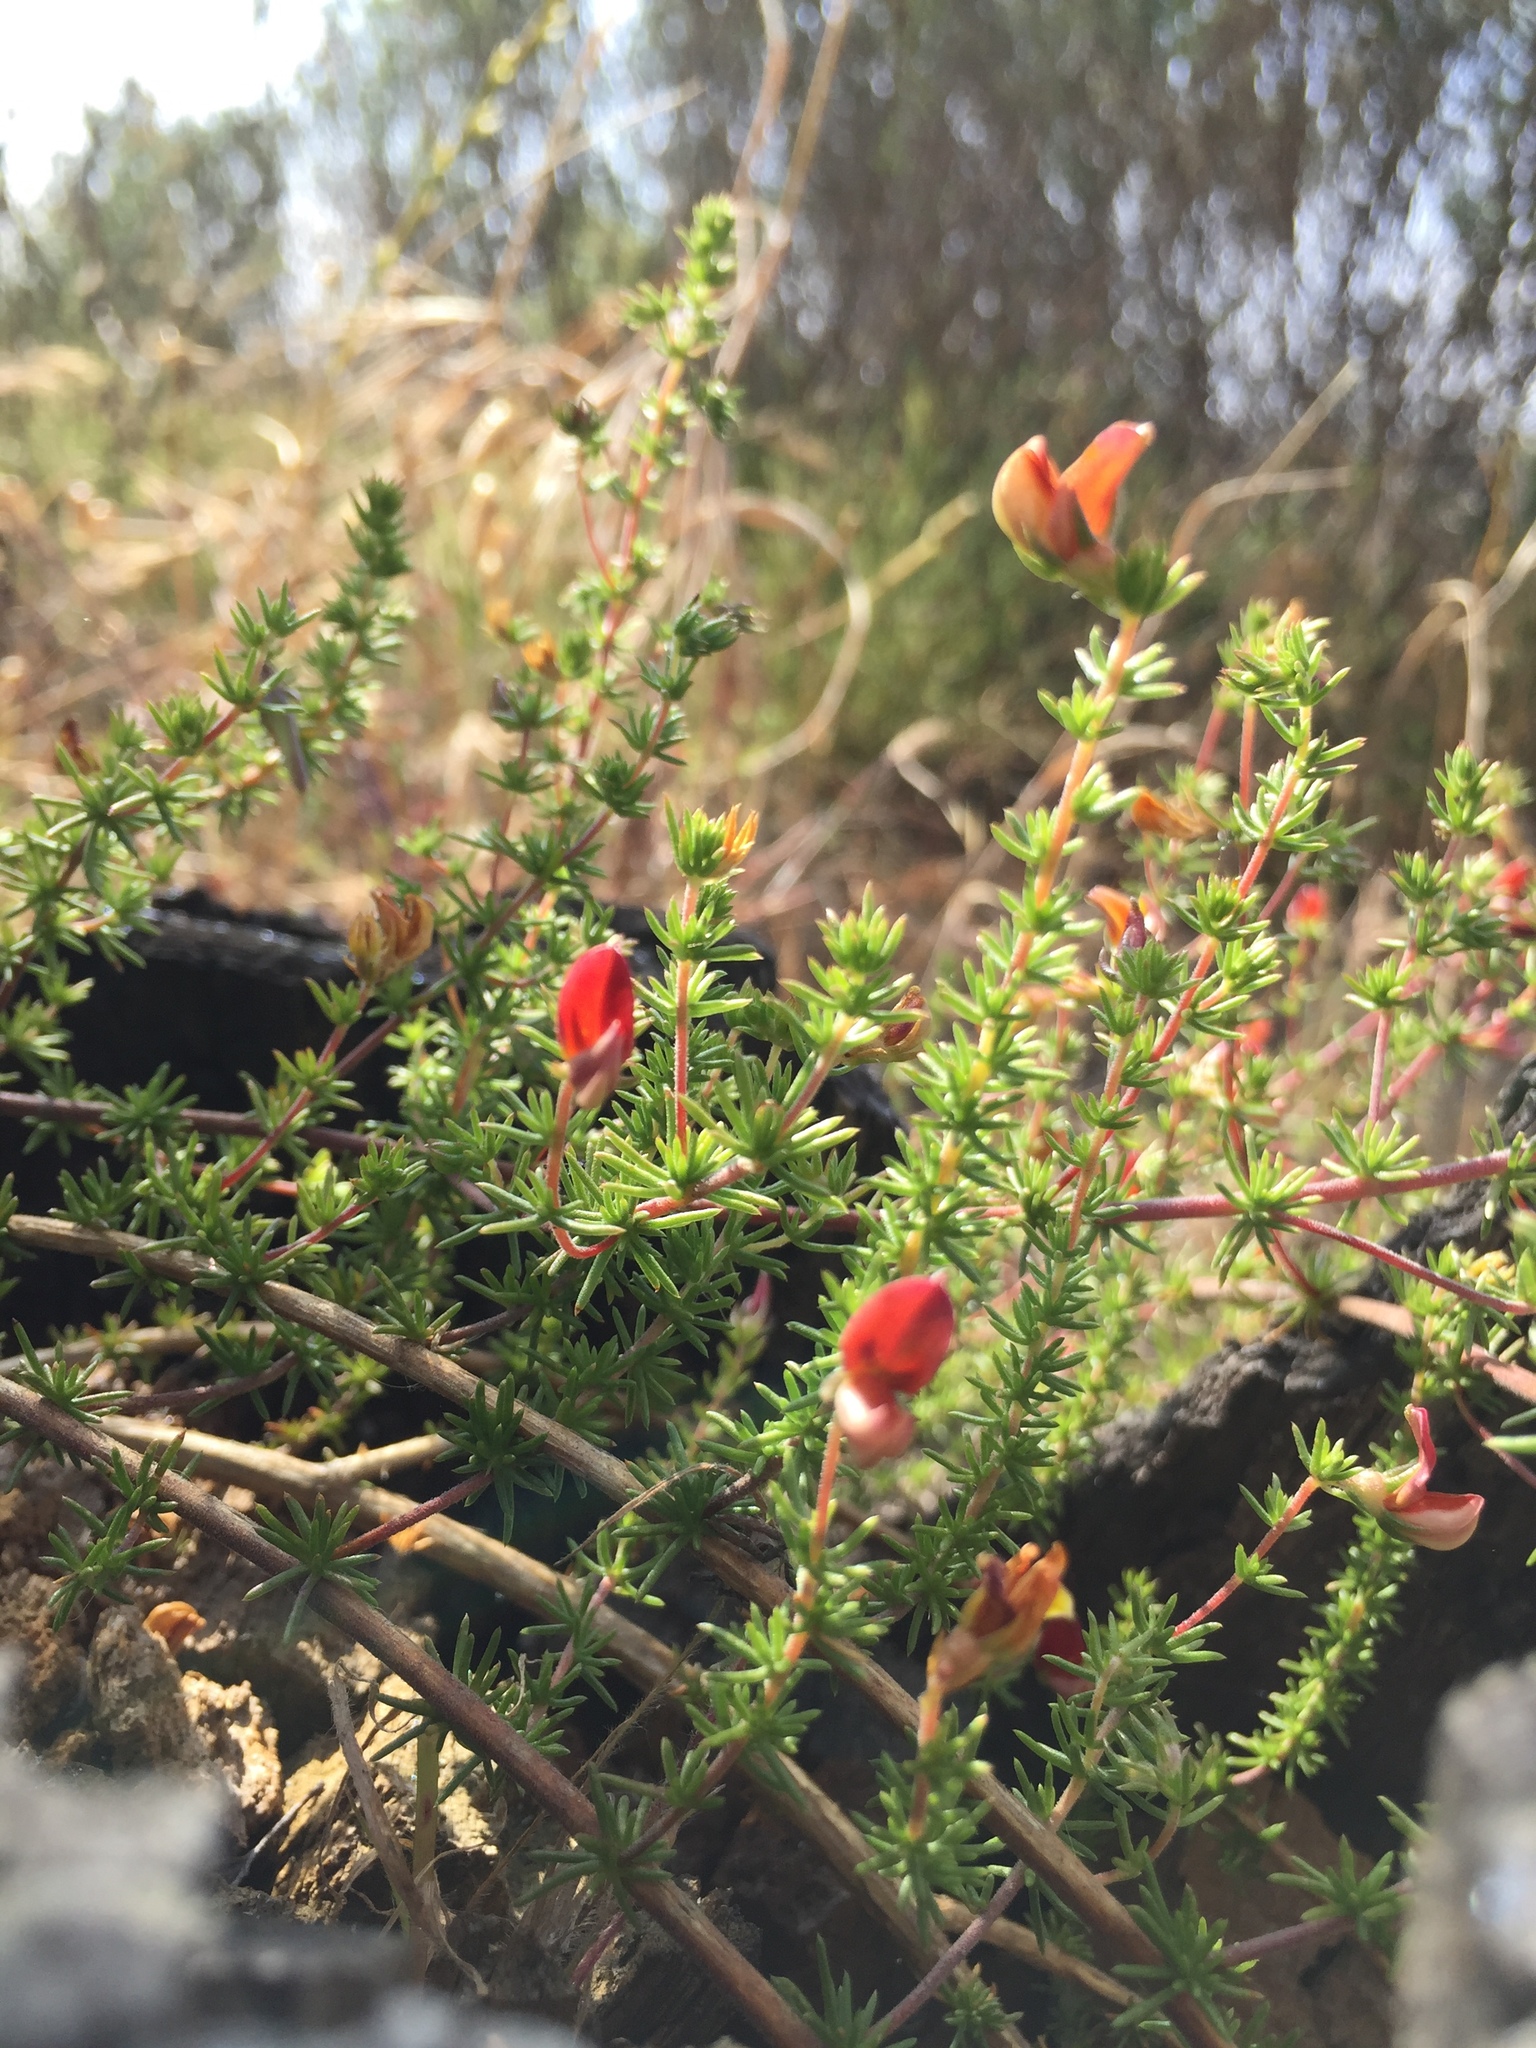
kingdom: Plantae
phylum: Tracheophyta
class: Magnoliopsida
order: Fabales
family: Fabaceae
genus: Aspalathus
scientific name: Aspalathus retroflexa
